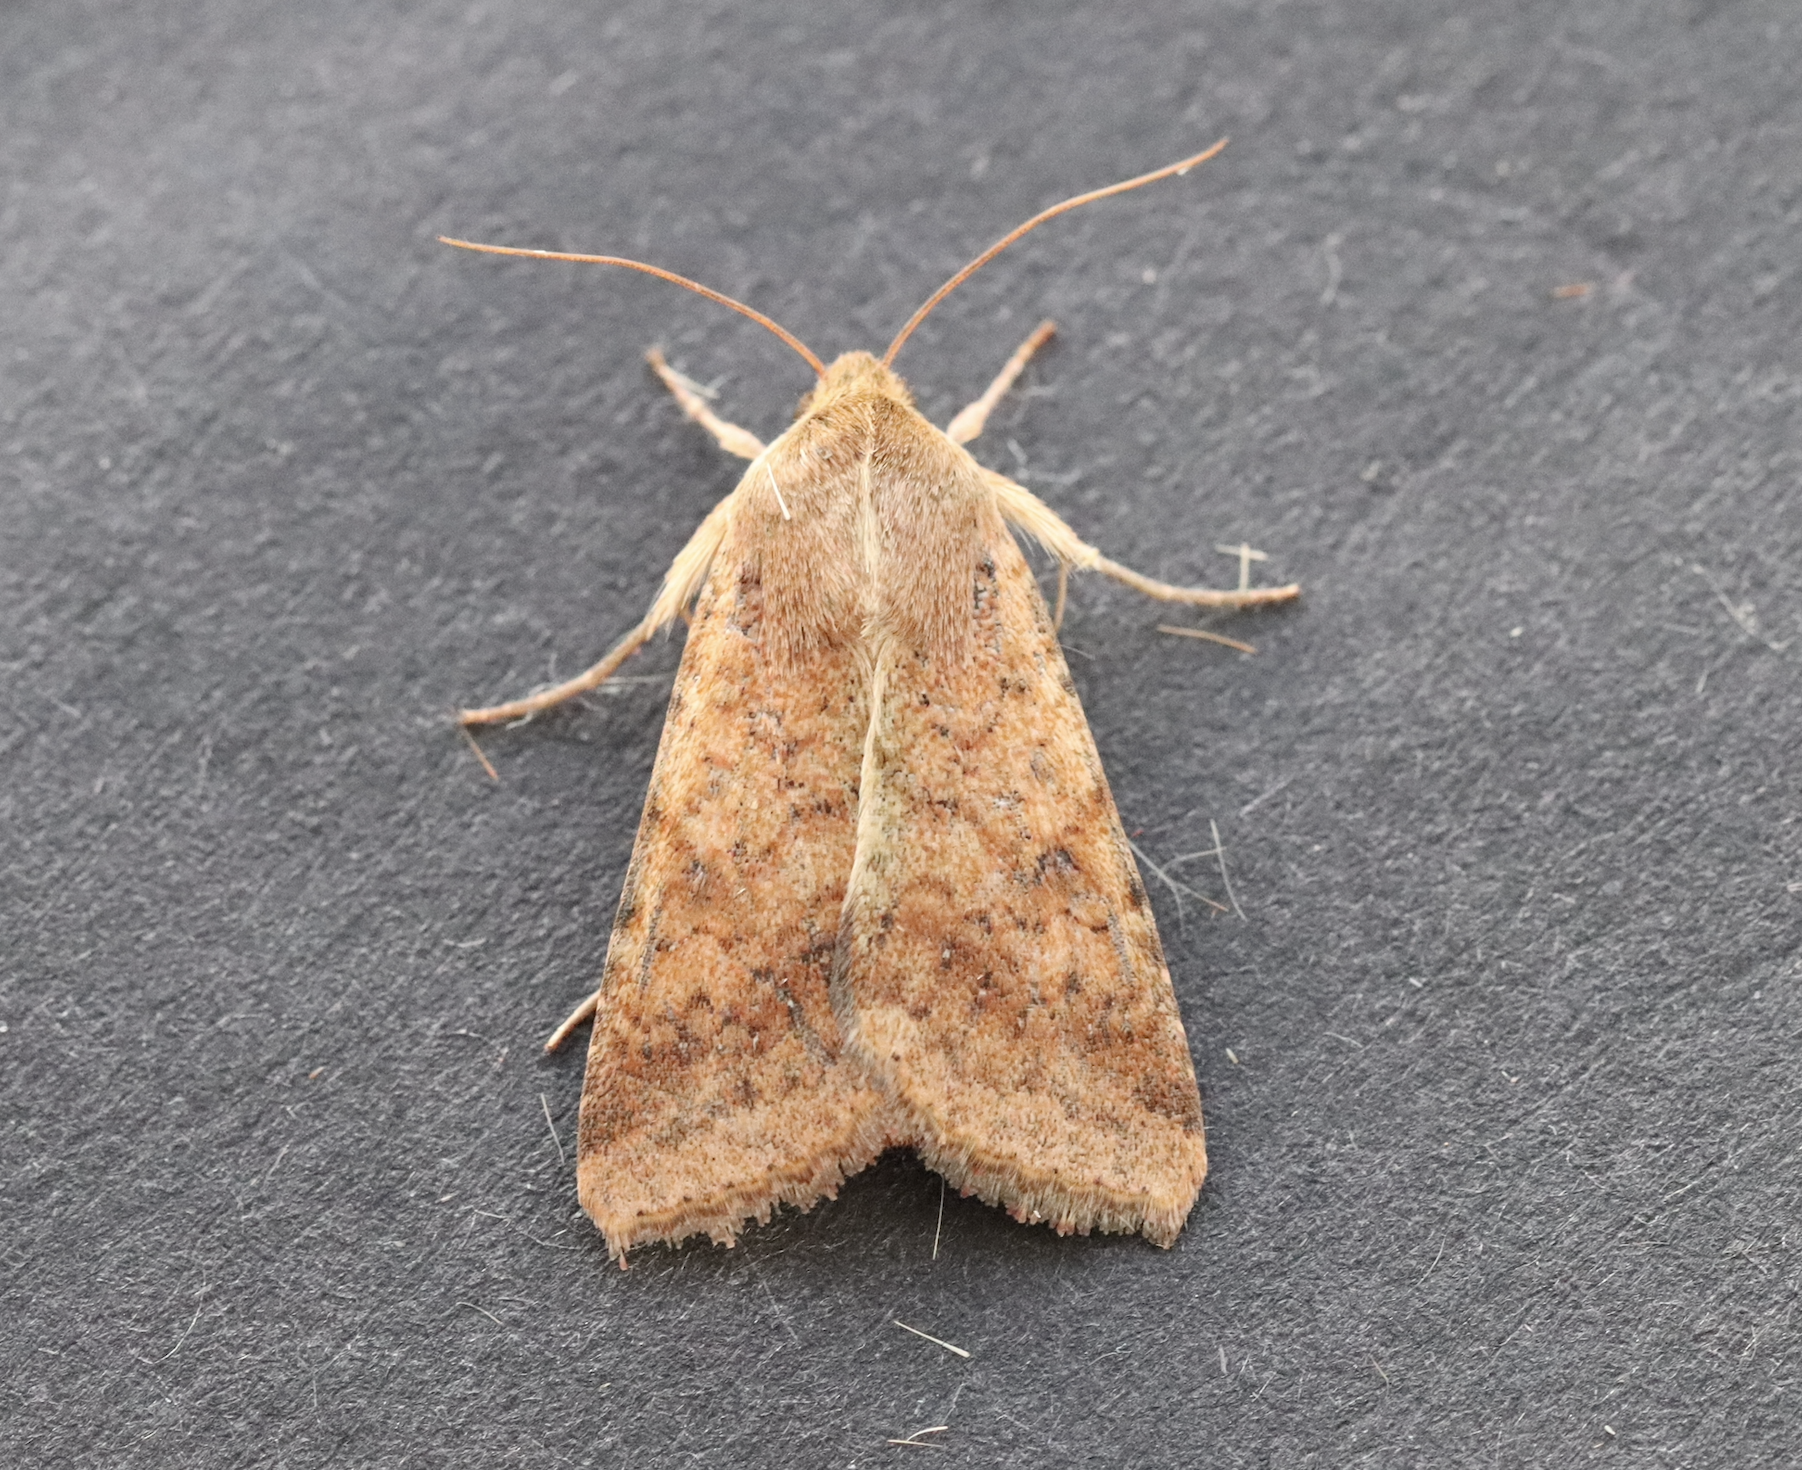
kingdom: Animalia
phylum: Arthropoda
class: Insecta
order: Lepidoptera
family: Noctuidae
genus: Helicoverpa
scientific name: Helicoverpa armigera
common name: Cotton bollworm
